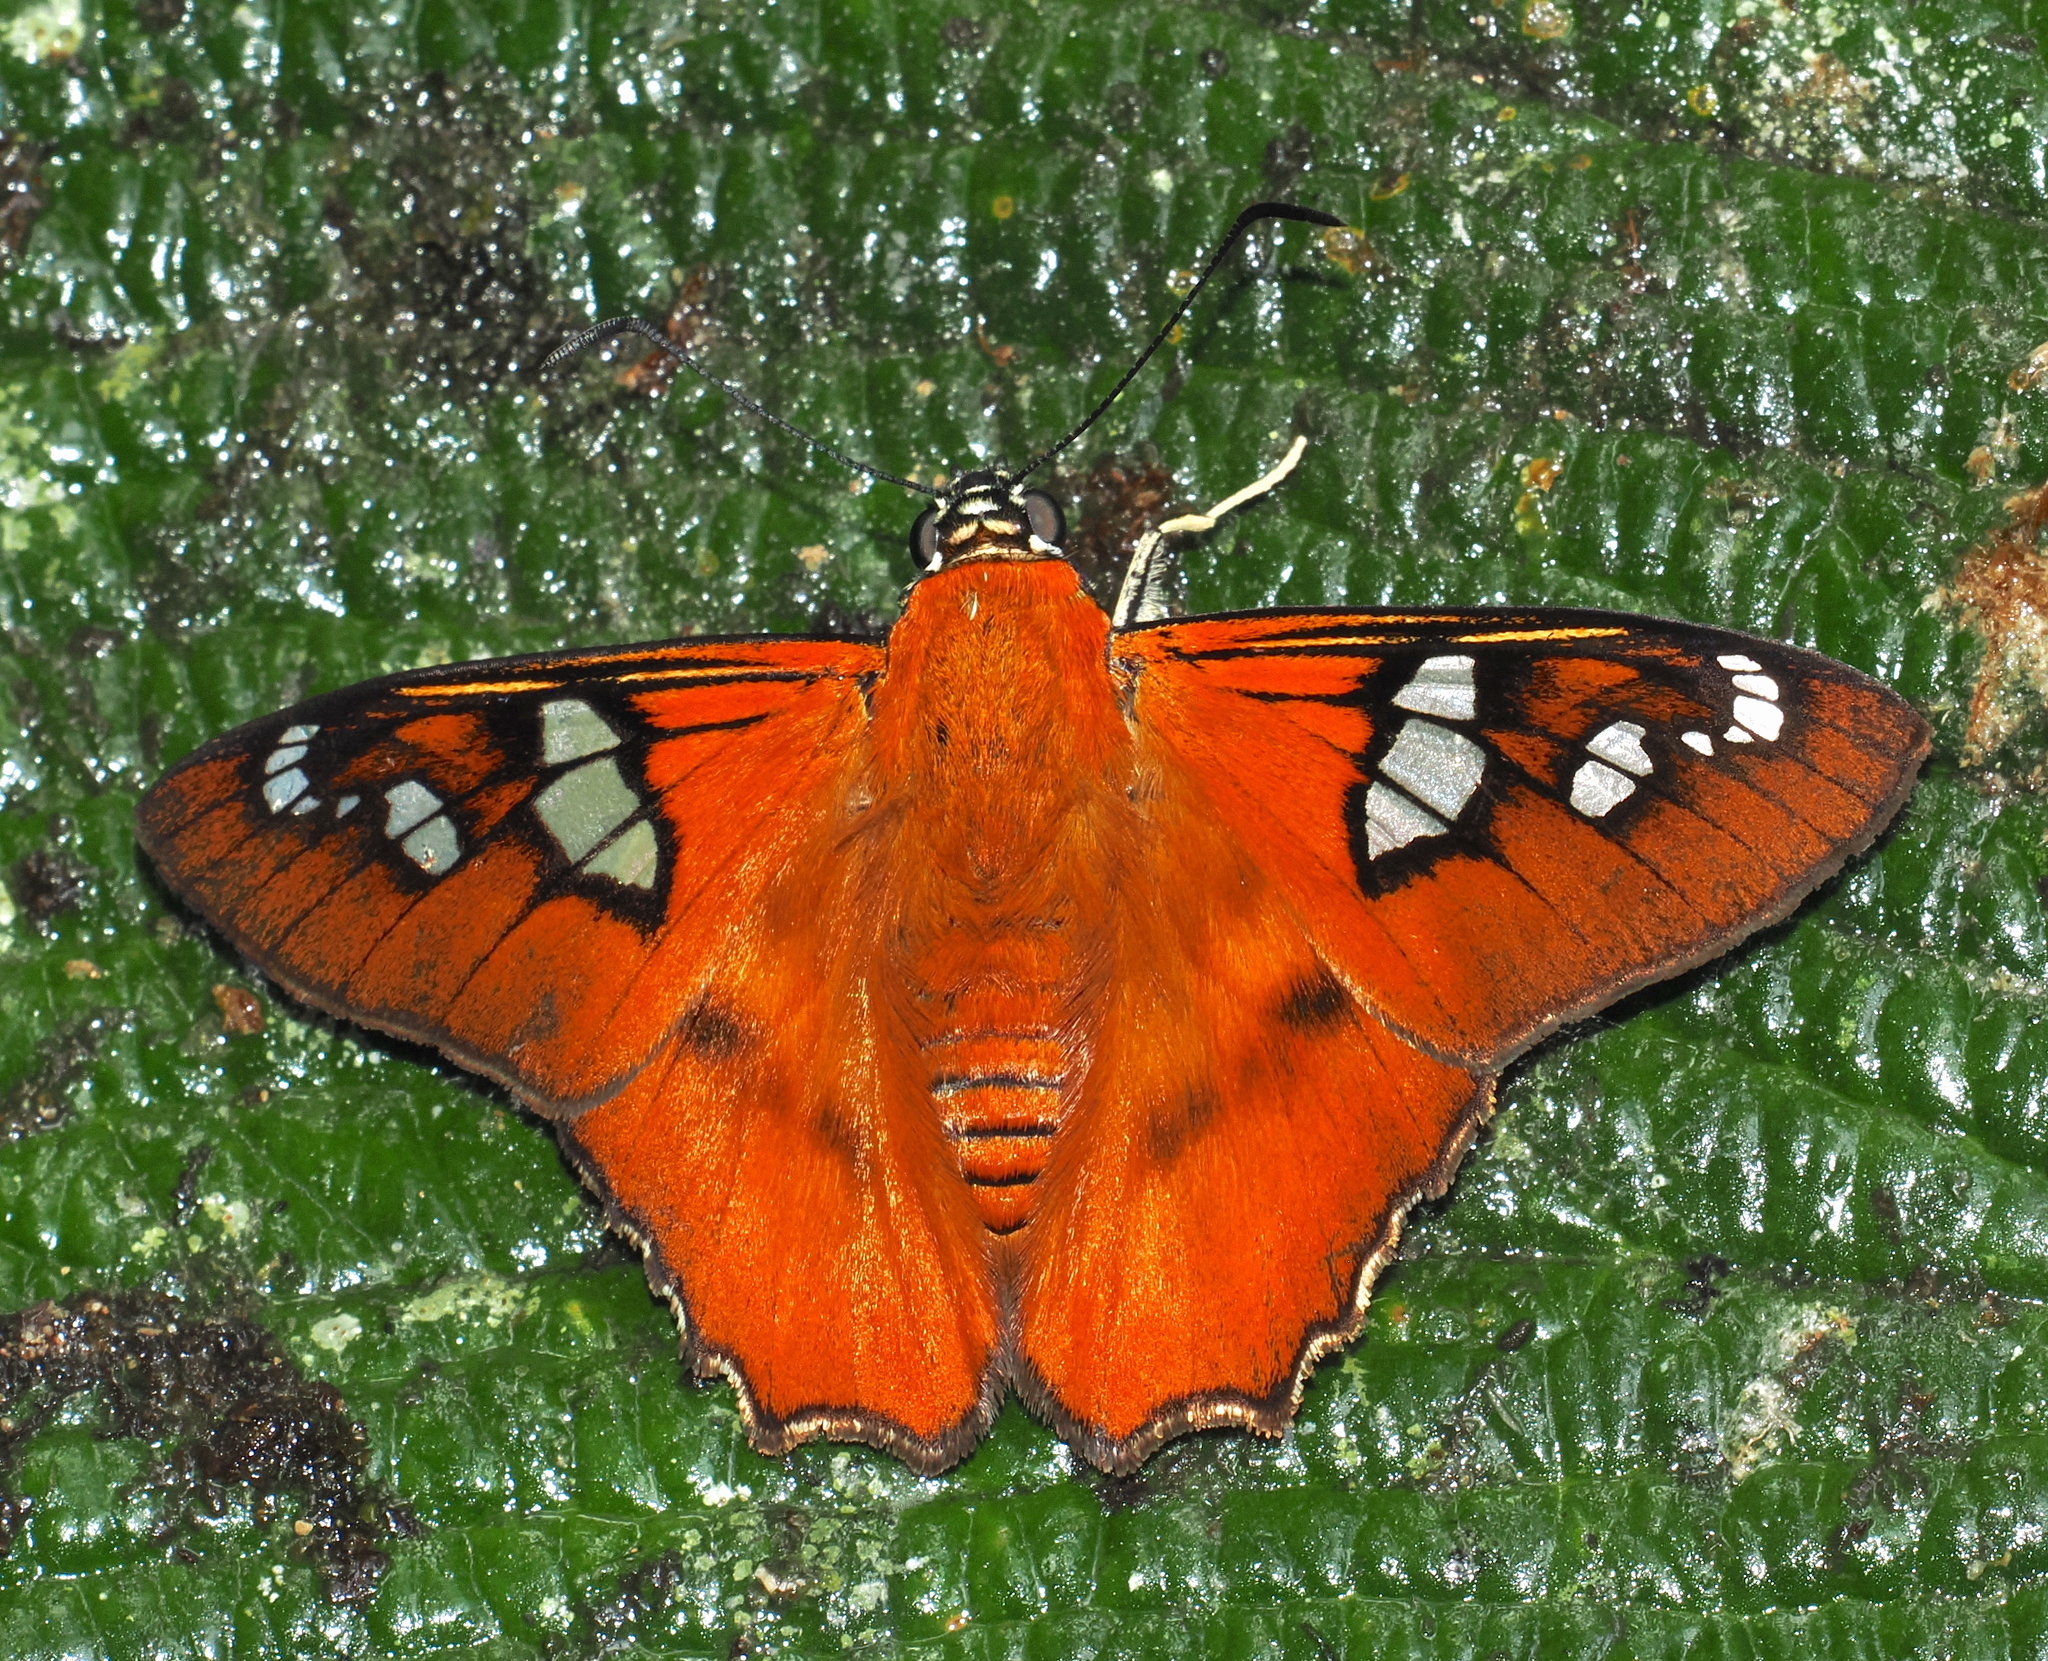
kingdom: Animalia
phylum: Arthropoda
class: Insecta
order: Lepidoptera
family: Hesperiidae
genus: Myscelus
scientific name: Myscelus pegasus
